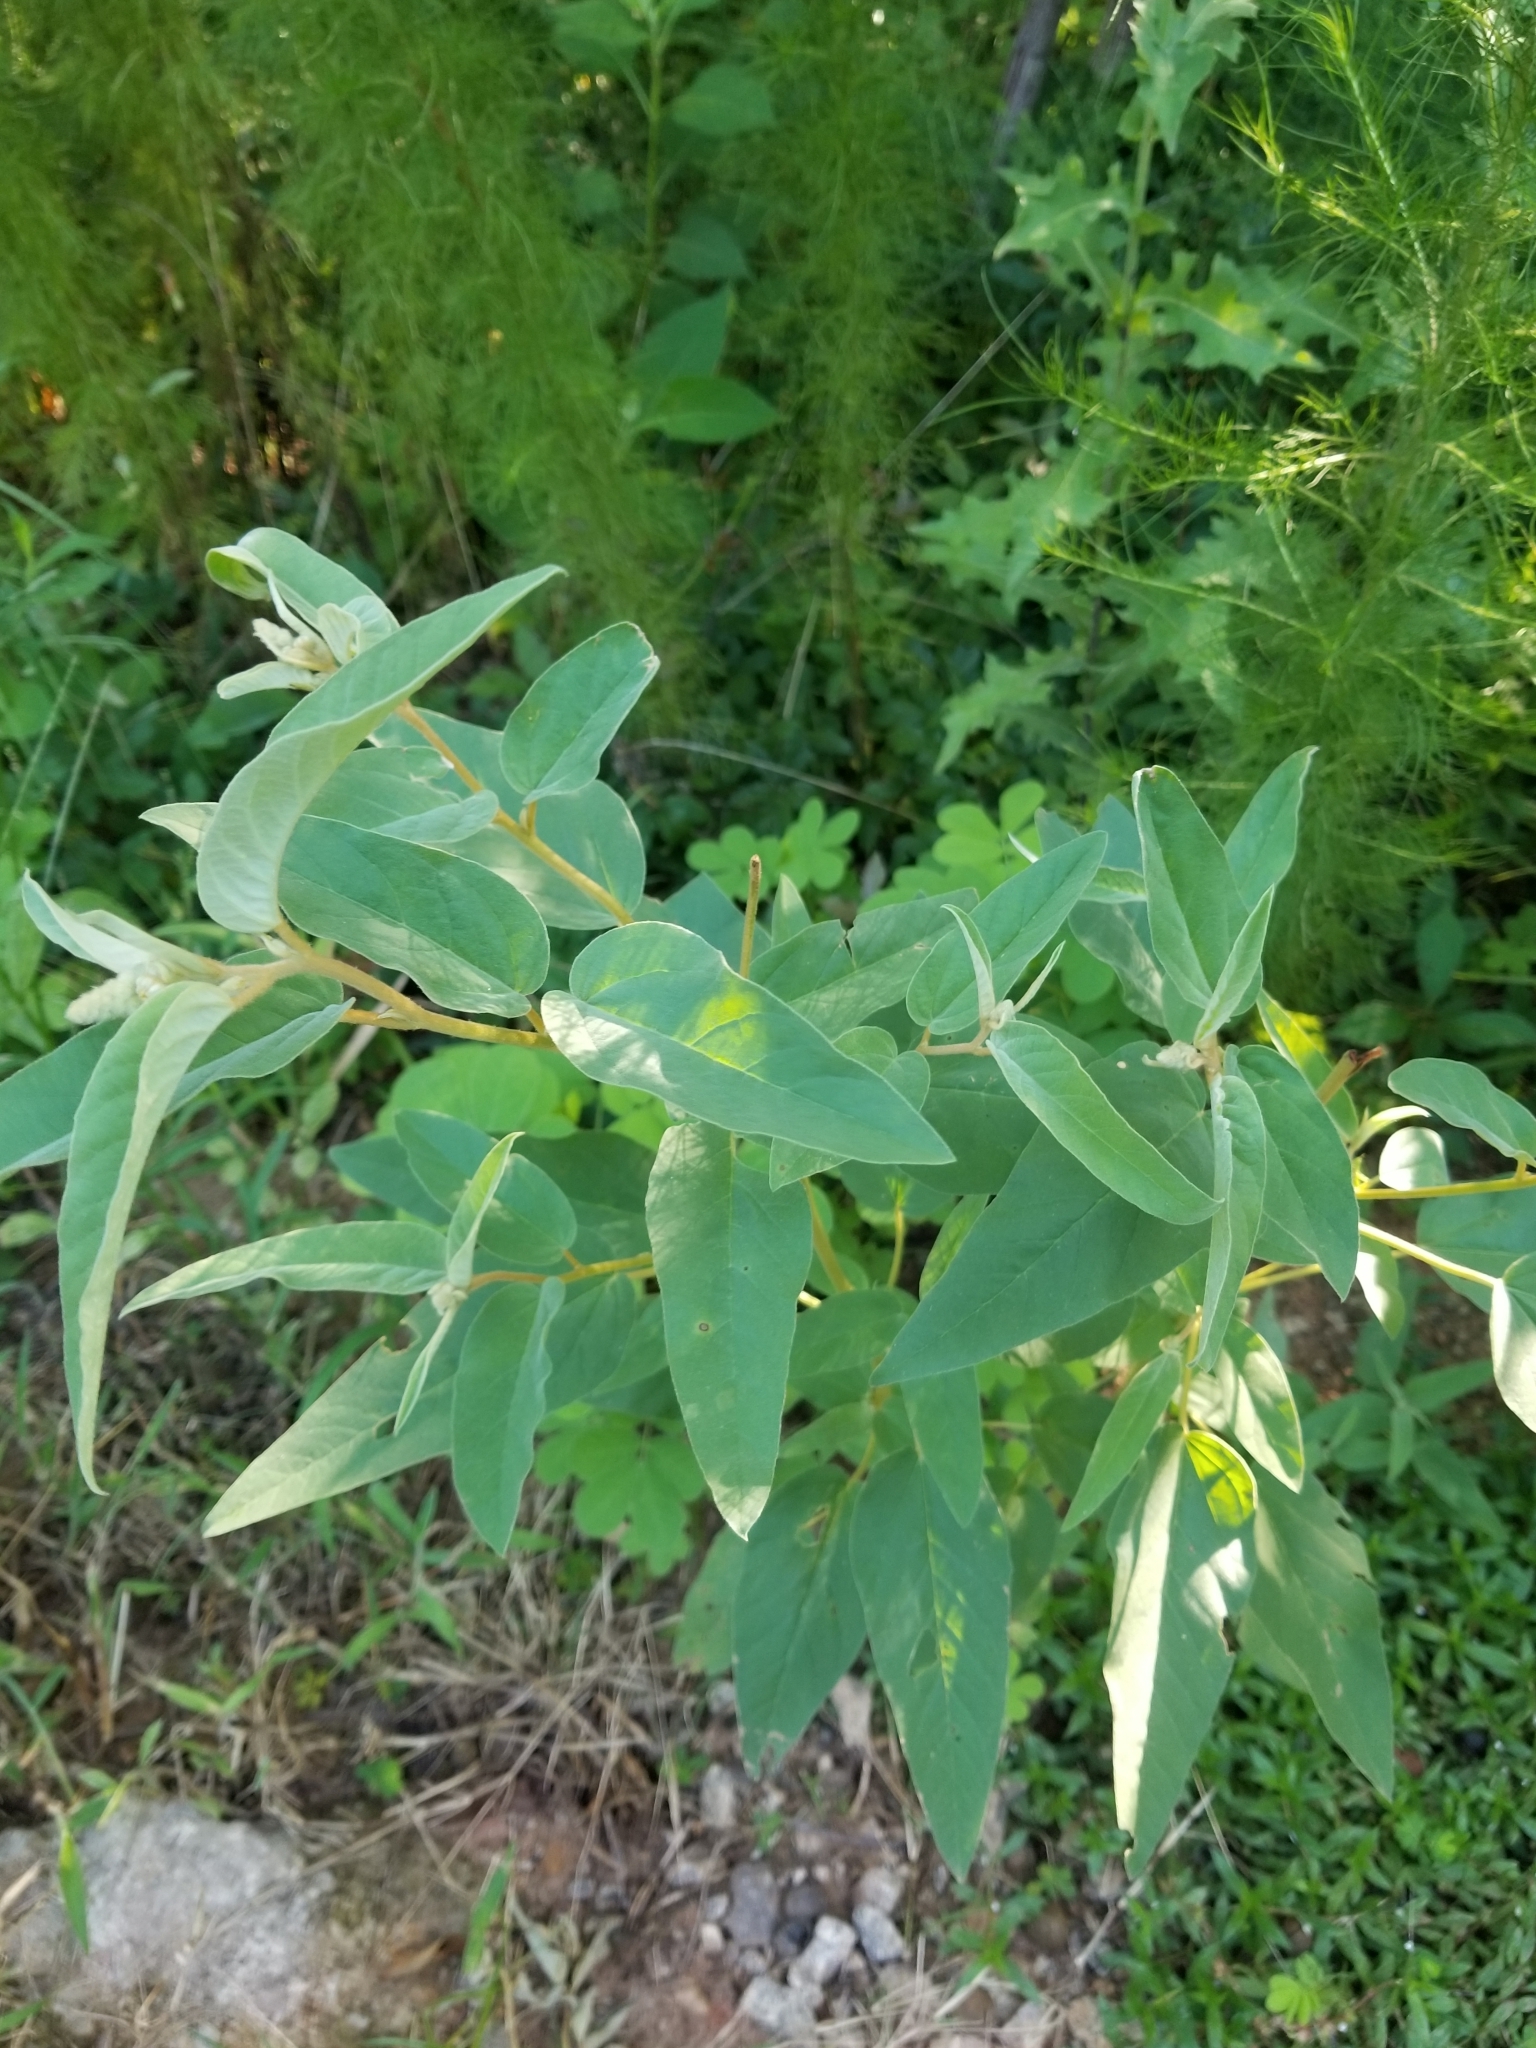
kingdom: Plantae
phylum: Tracheophyta
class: Magnoliopsida
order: Malpighiales
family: Euphorbiaceae
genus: Croton
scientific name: Croton lindheimeri
